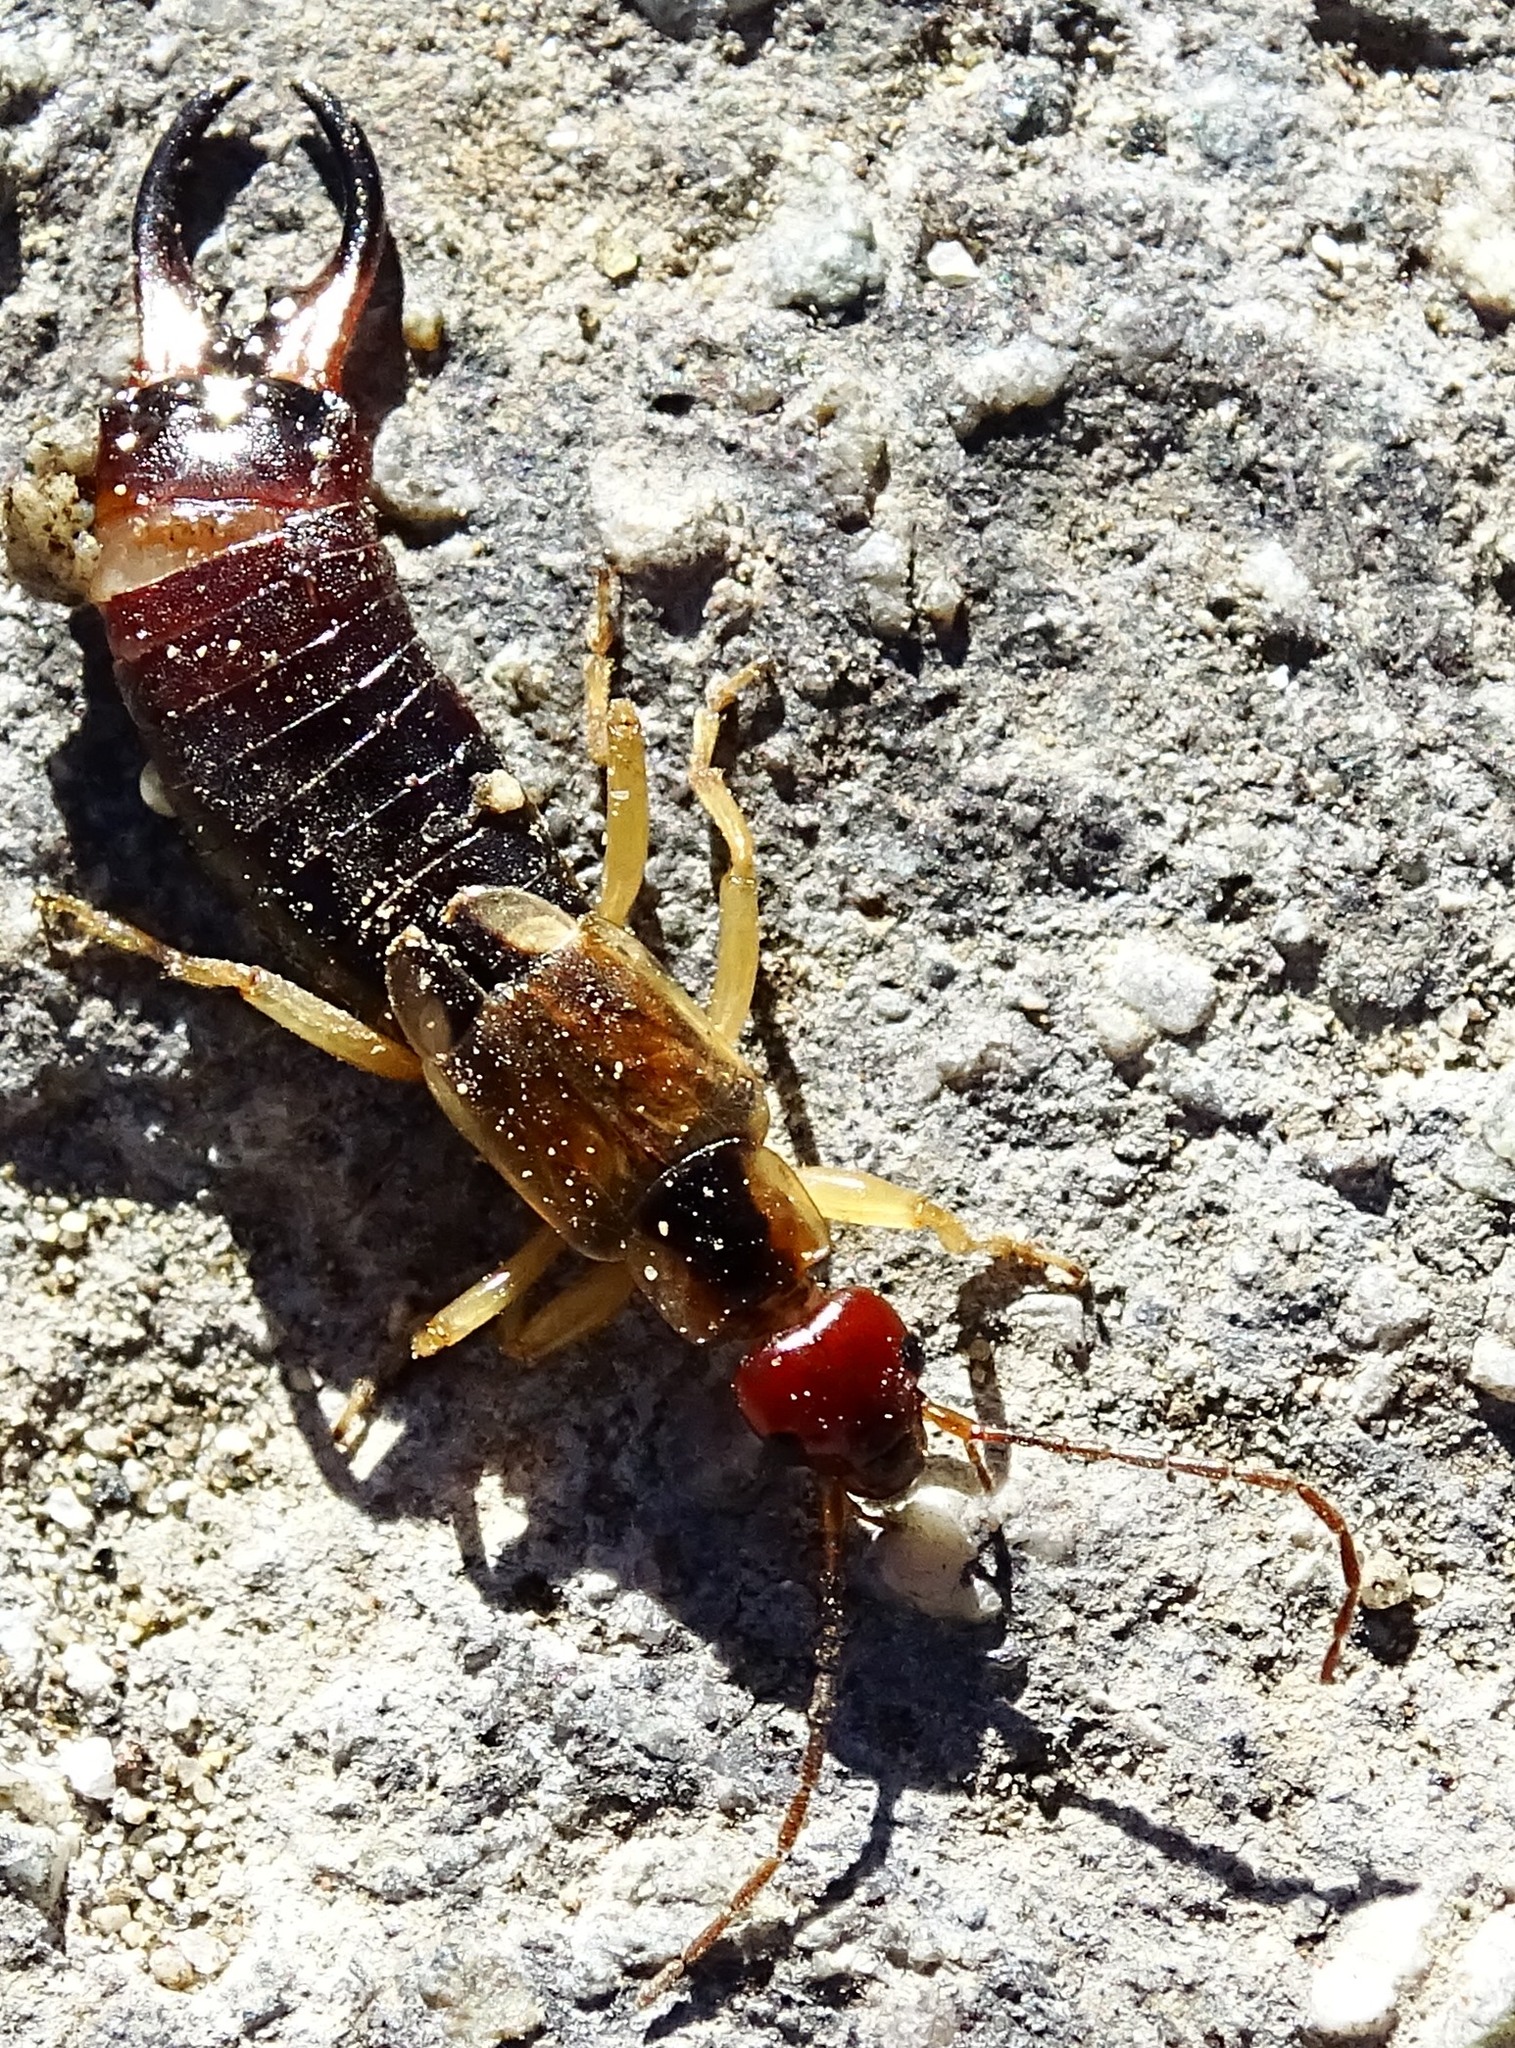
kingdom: Animalia
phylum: Arthropoda
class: Insecta
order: Dermaptera
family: Forficulidae
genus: Forficula
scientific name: Forficula
